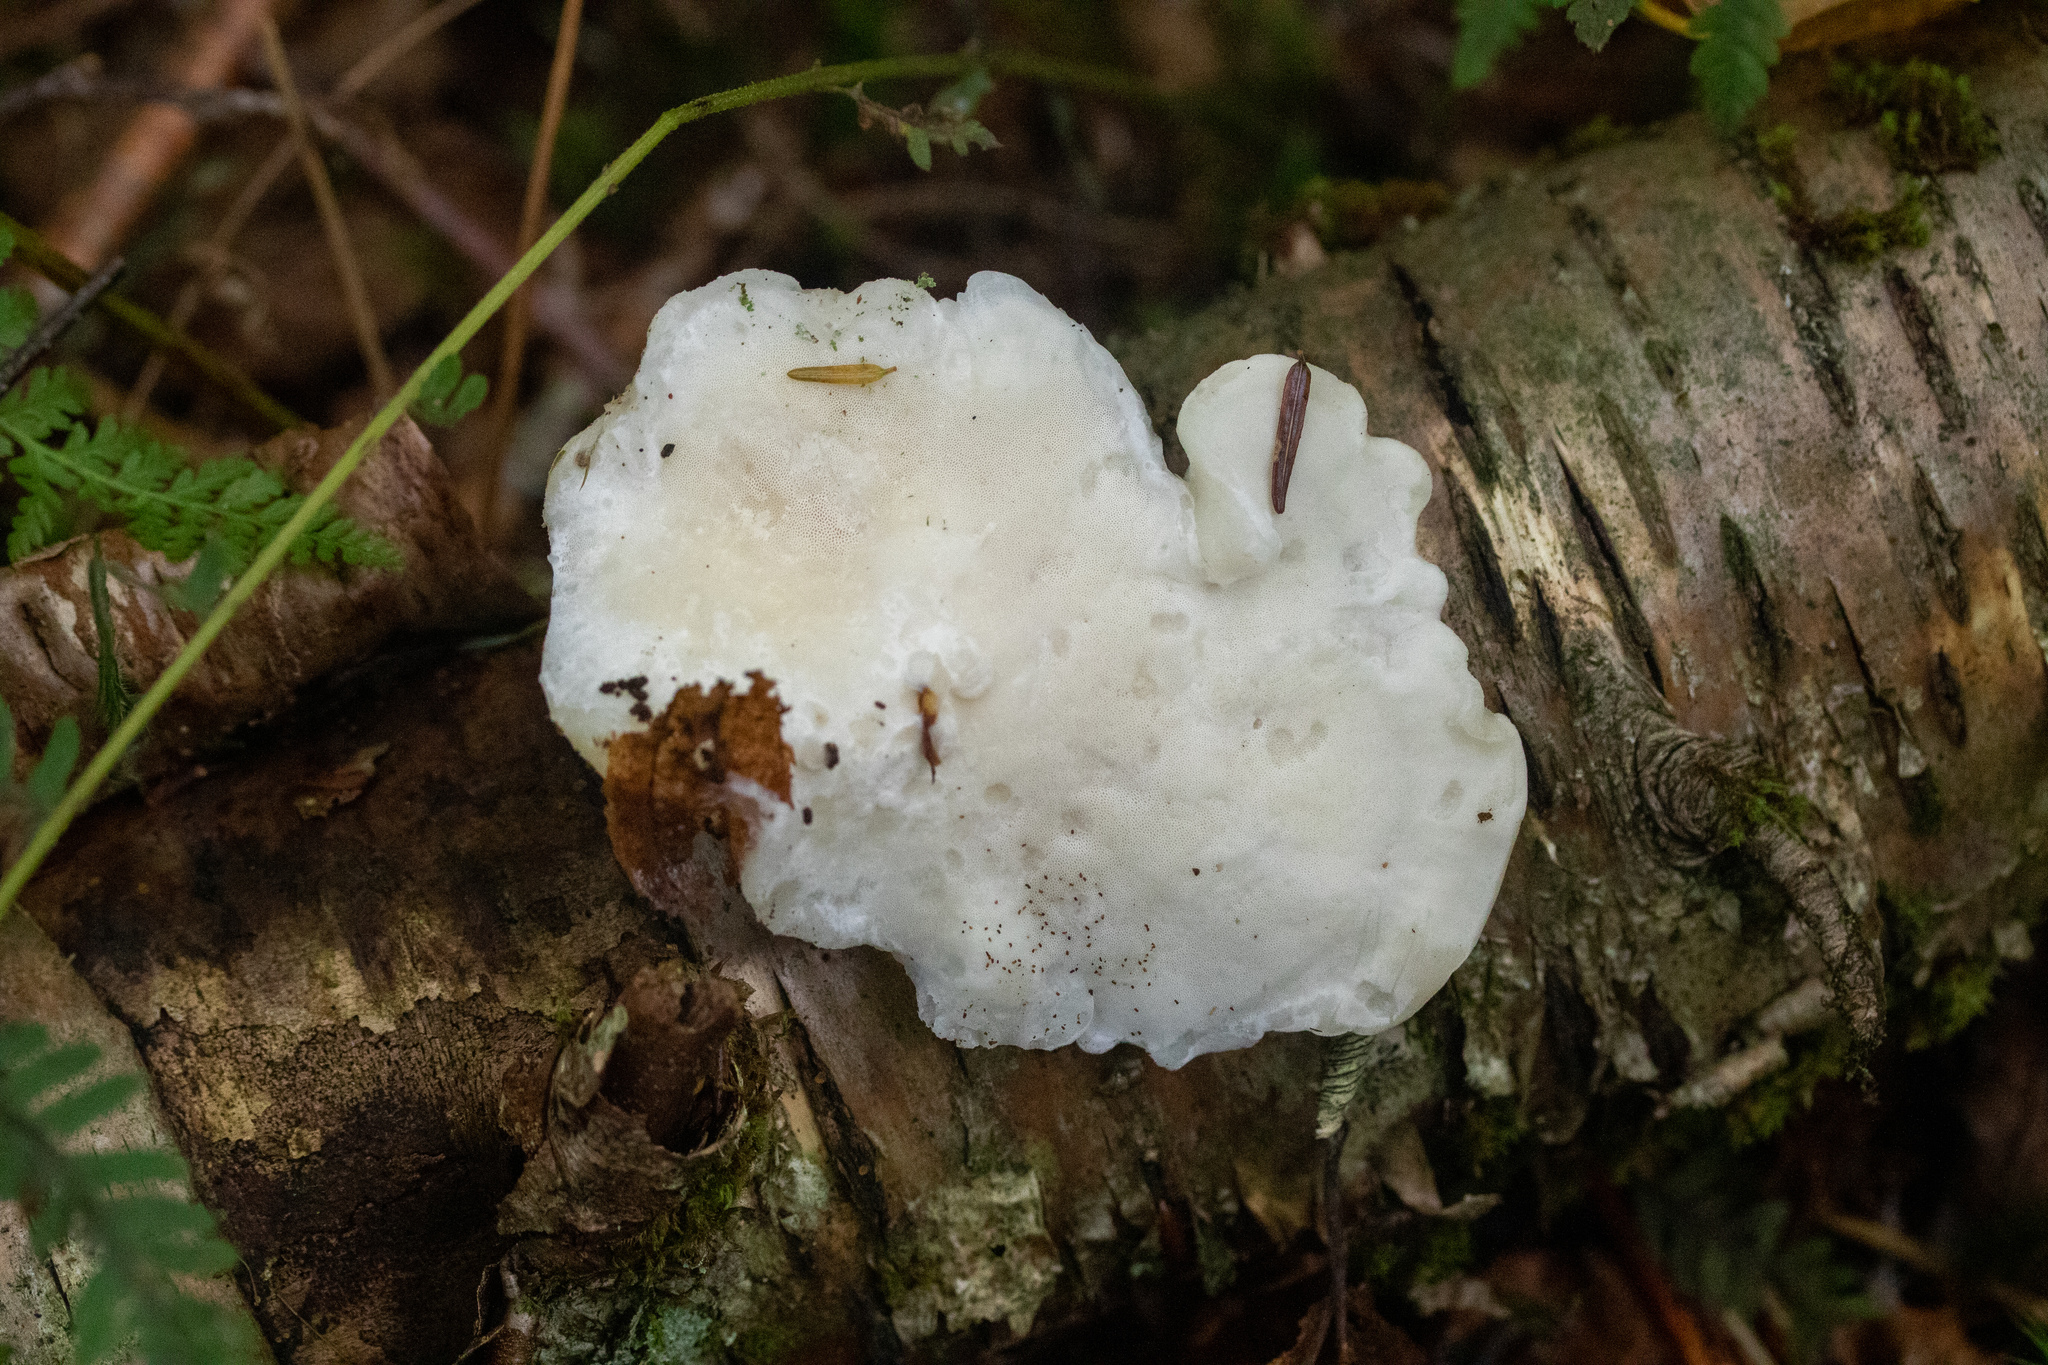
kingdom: Fungi
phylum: Basidiomycota
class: Agaricomycetes
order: Polyporales
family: Incrustoporiaceae
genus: Tyromyces
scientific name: Tyromyces chioneus
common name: White cheese polypore
